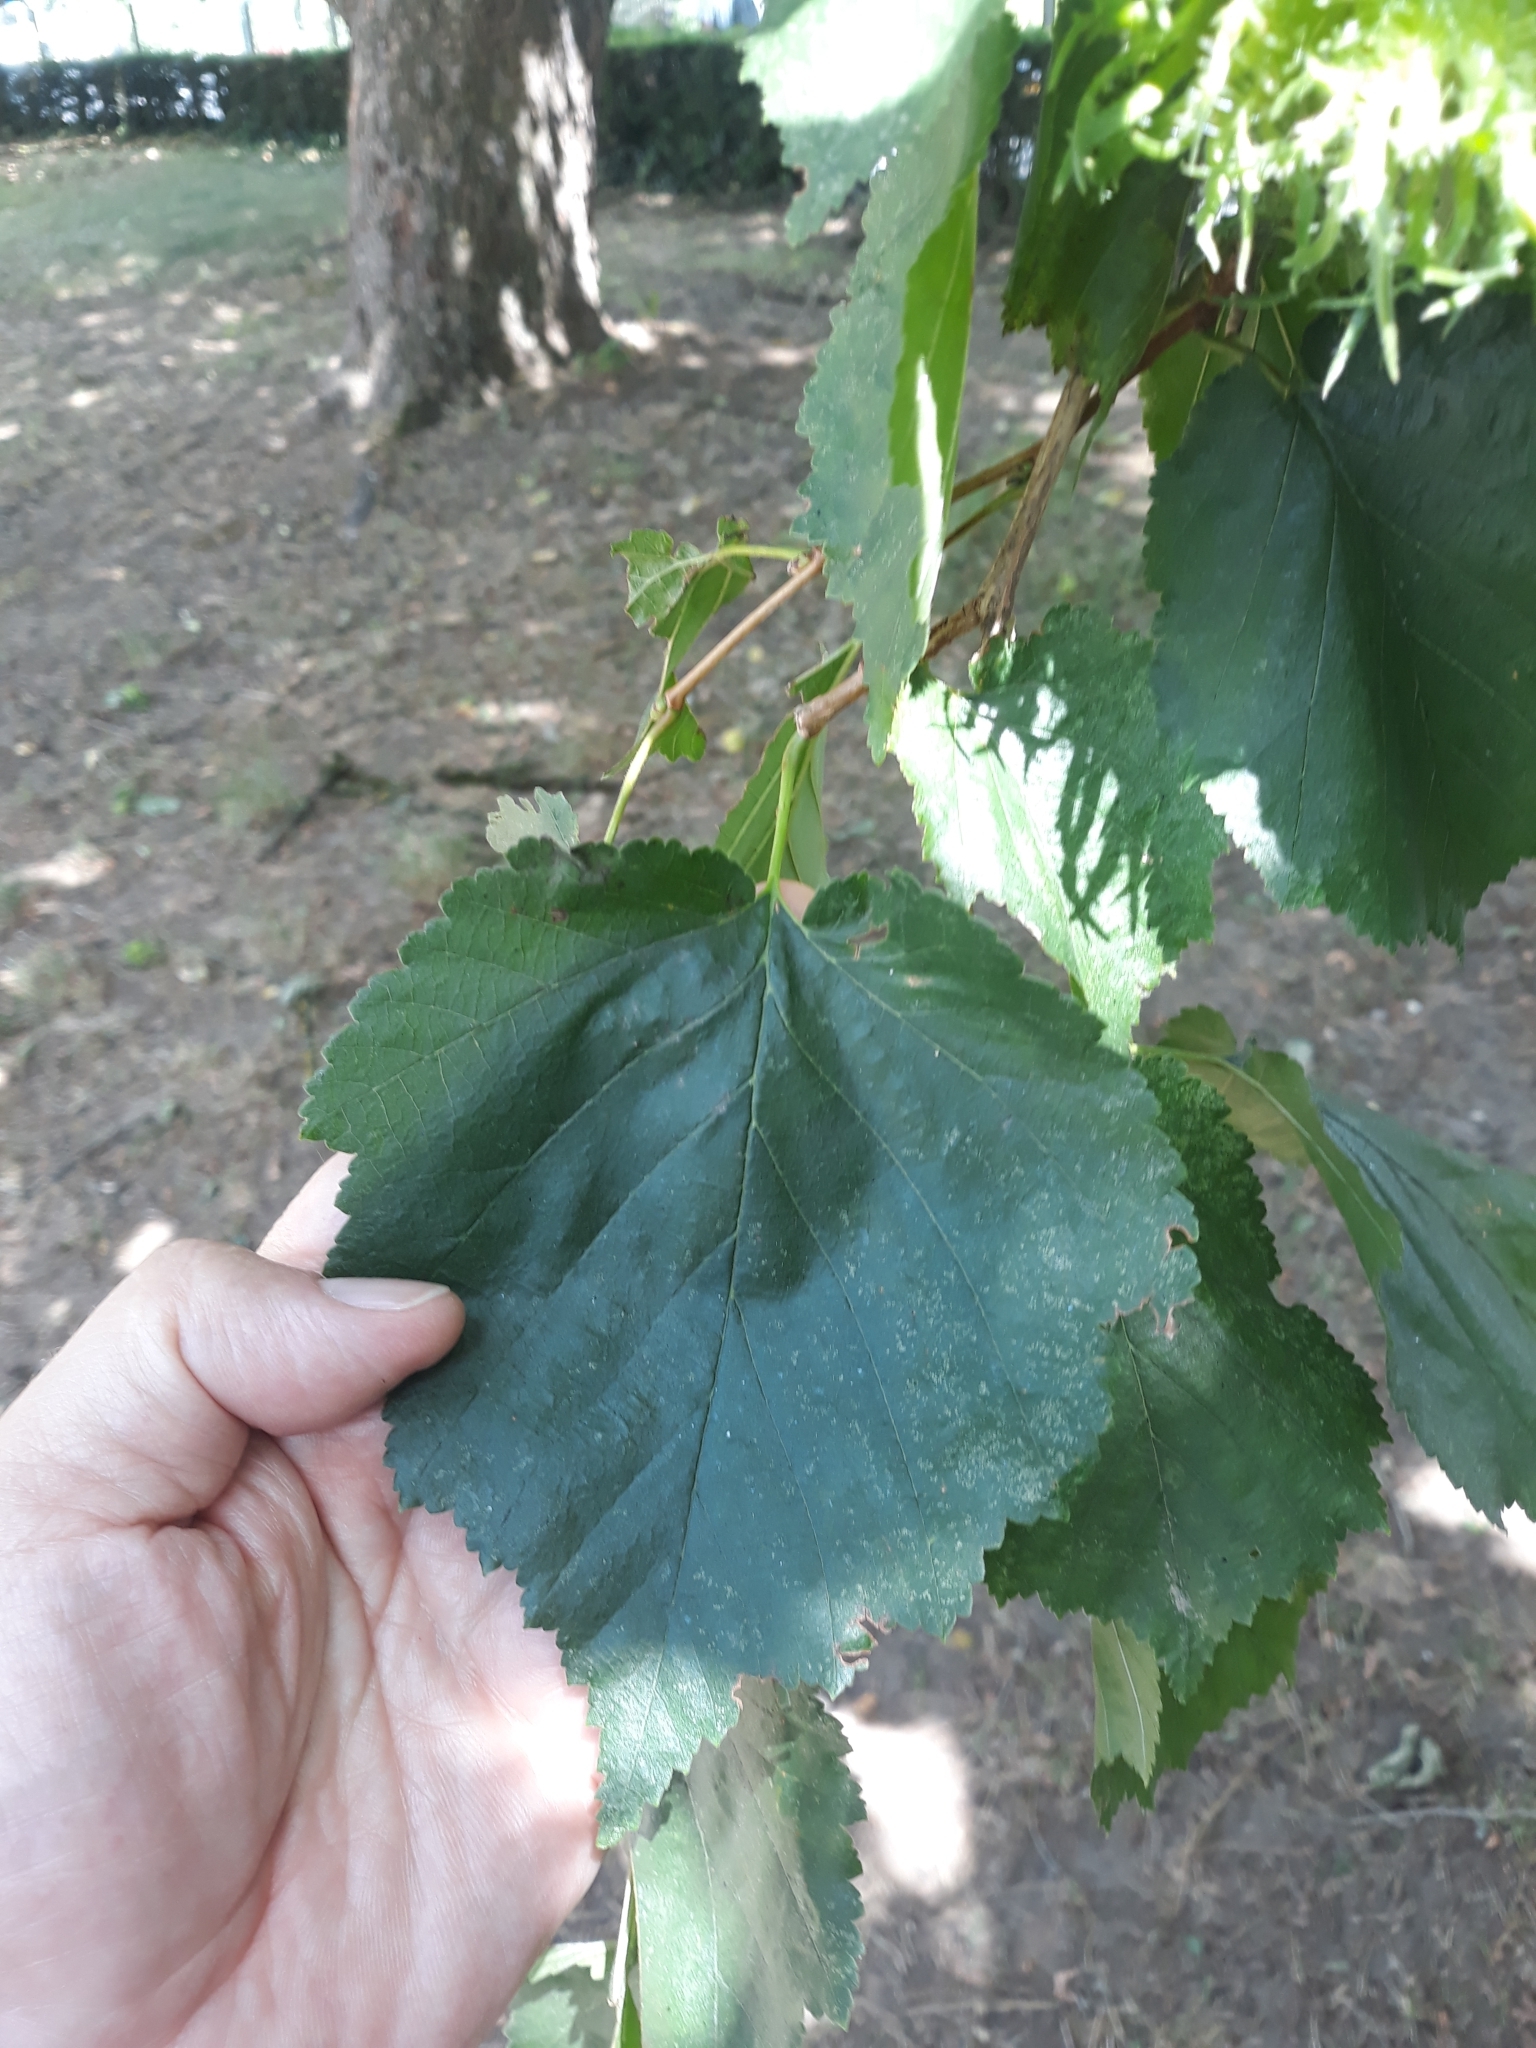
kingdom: Plantae
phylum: Tracheophyta
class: Magnoliopsida
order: Fagales
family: Betulaceae
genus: Corylus
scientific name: Corylus colurna
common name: Turkish hazel
